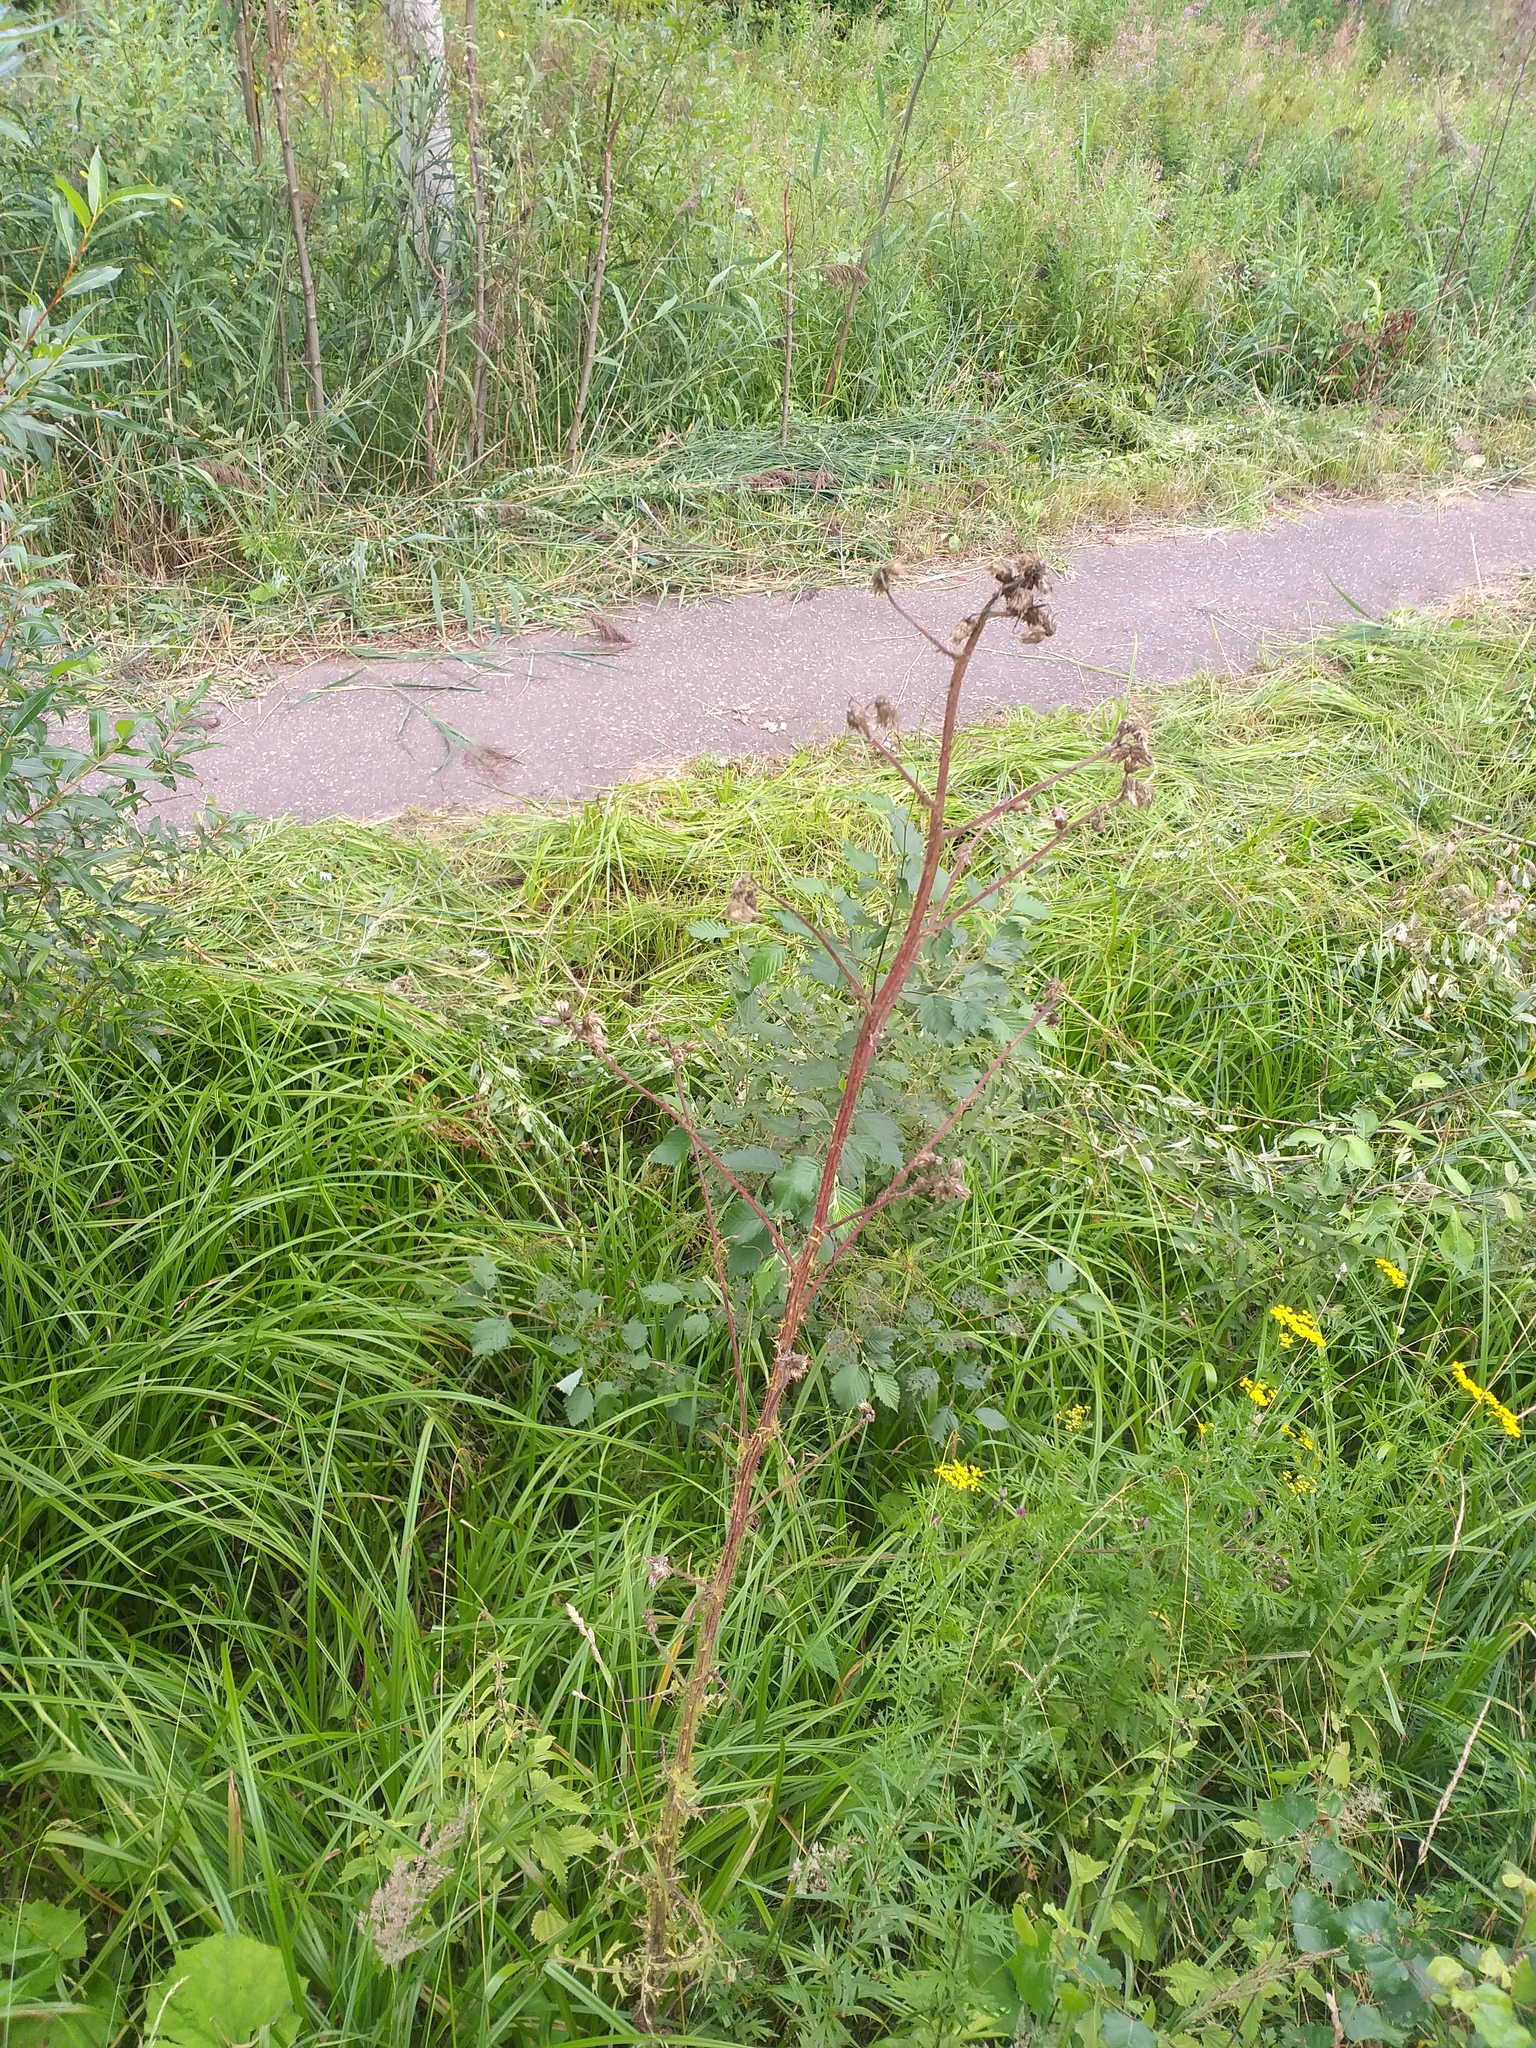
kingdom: Plantae
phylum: Tracheophyta
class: Magnoliopsida
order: Asterales
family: Asteraceae
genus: Cirsium
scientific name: Cirsium palustre
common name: Marsh thistle
